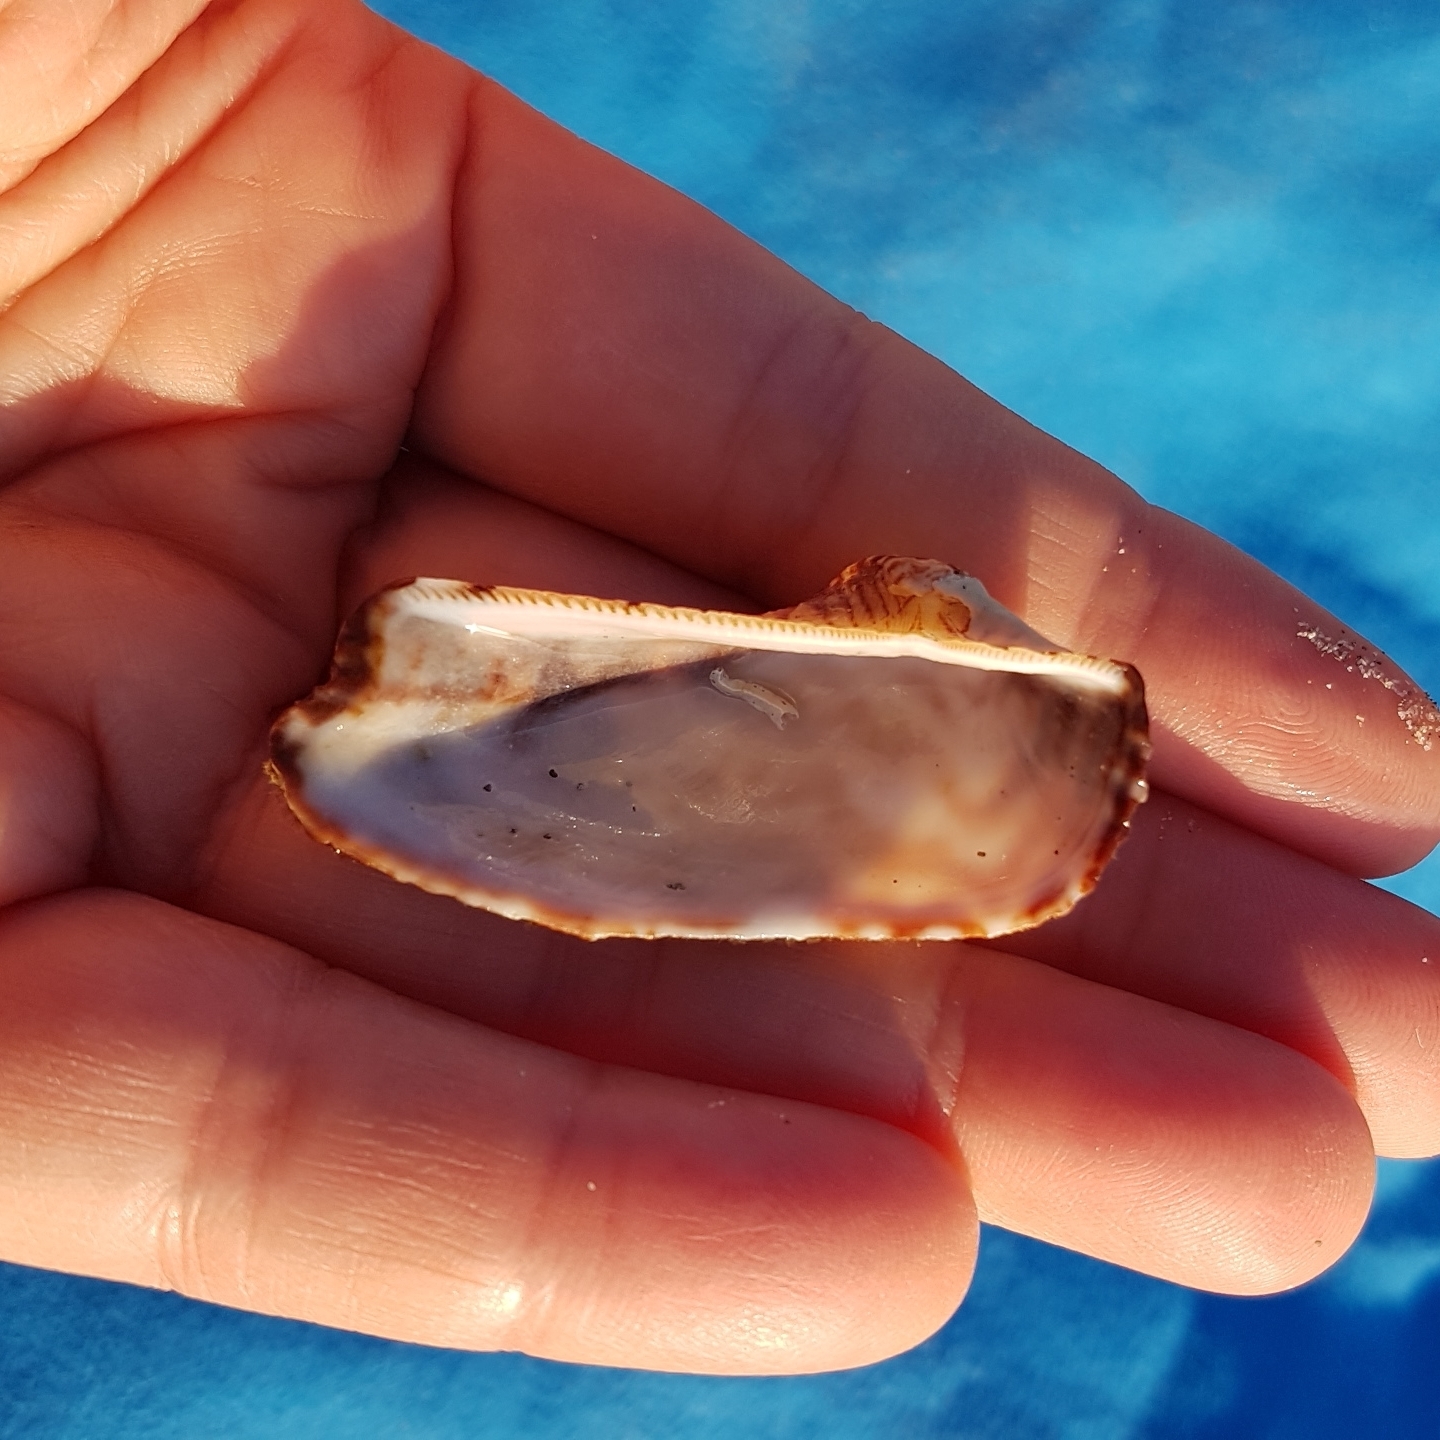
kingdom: Animalia
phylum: Mollusca
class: Bivalvia
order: Arcida
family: Arcidae
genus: Arca
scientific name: Arca noae
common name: Noah's arch
